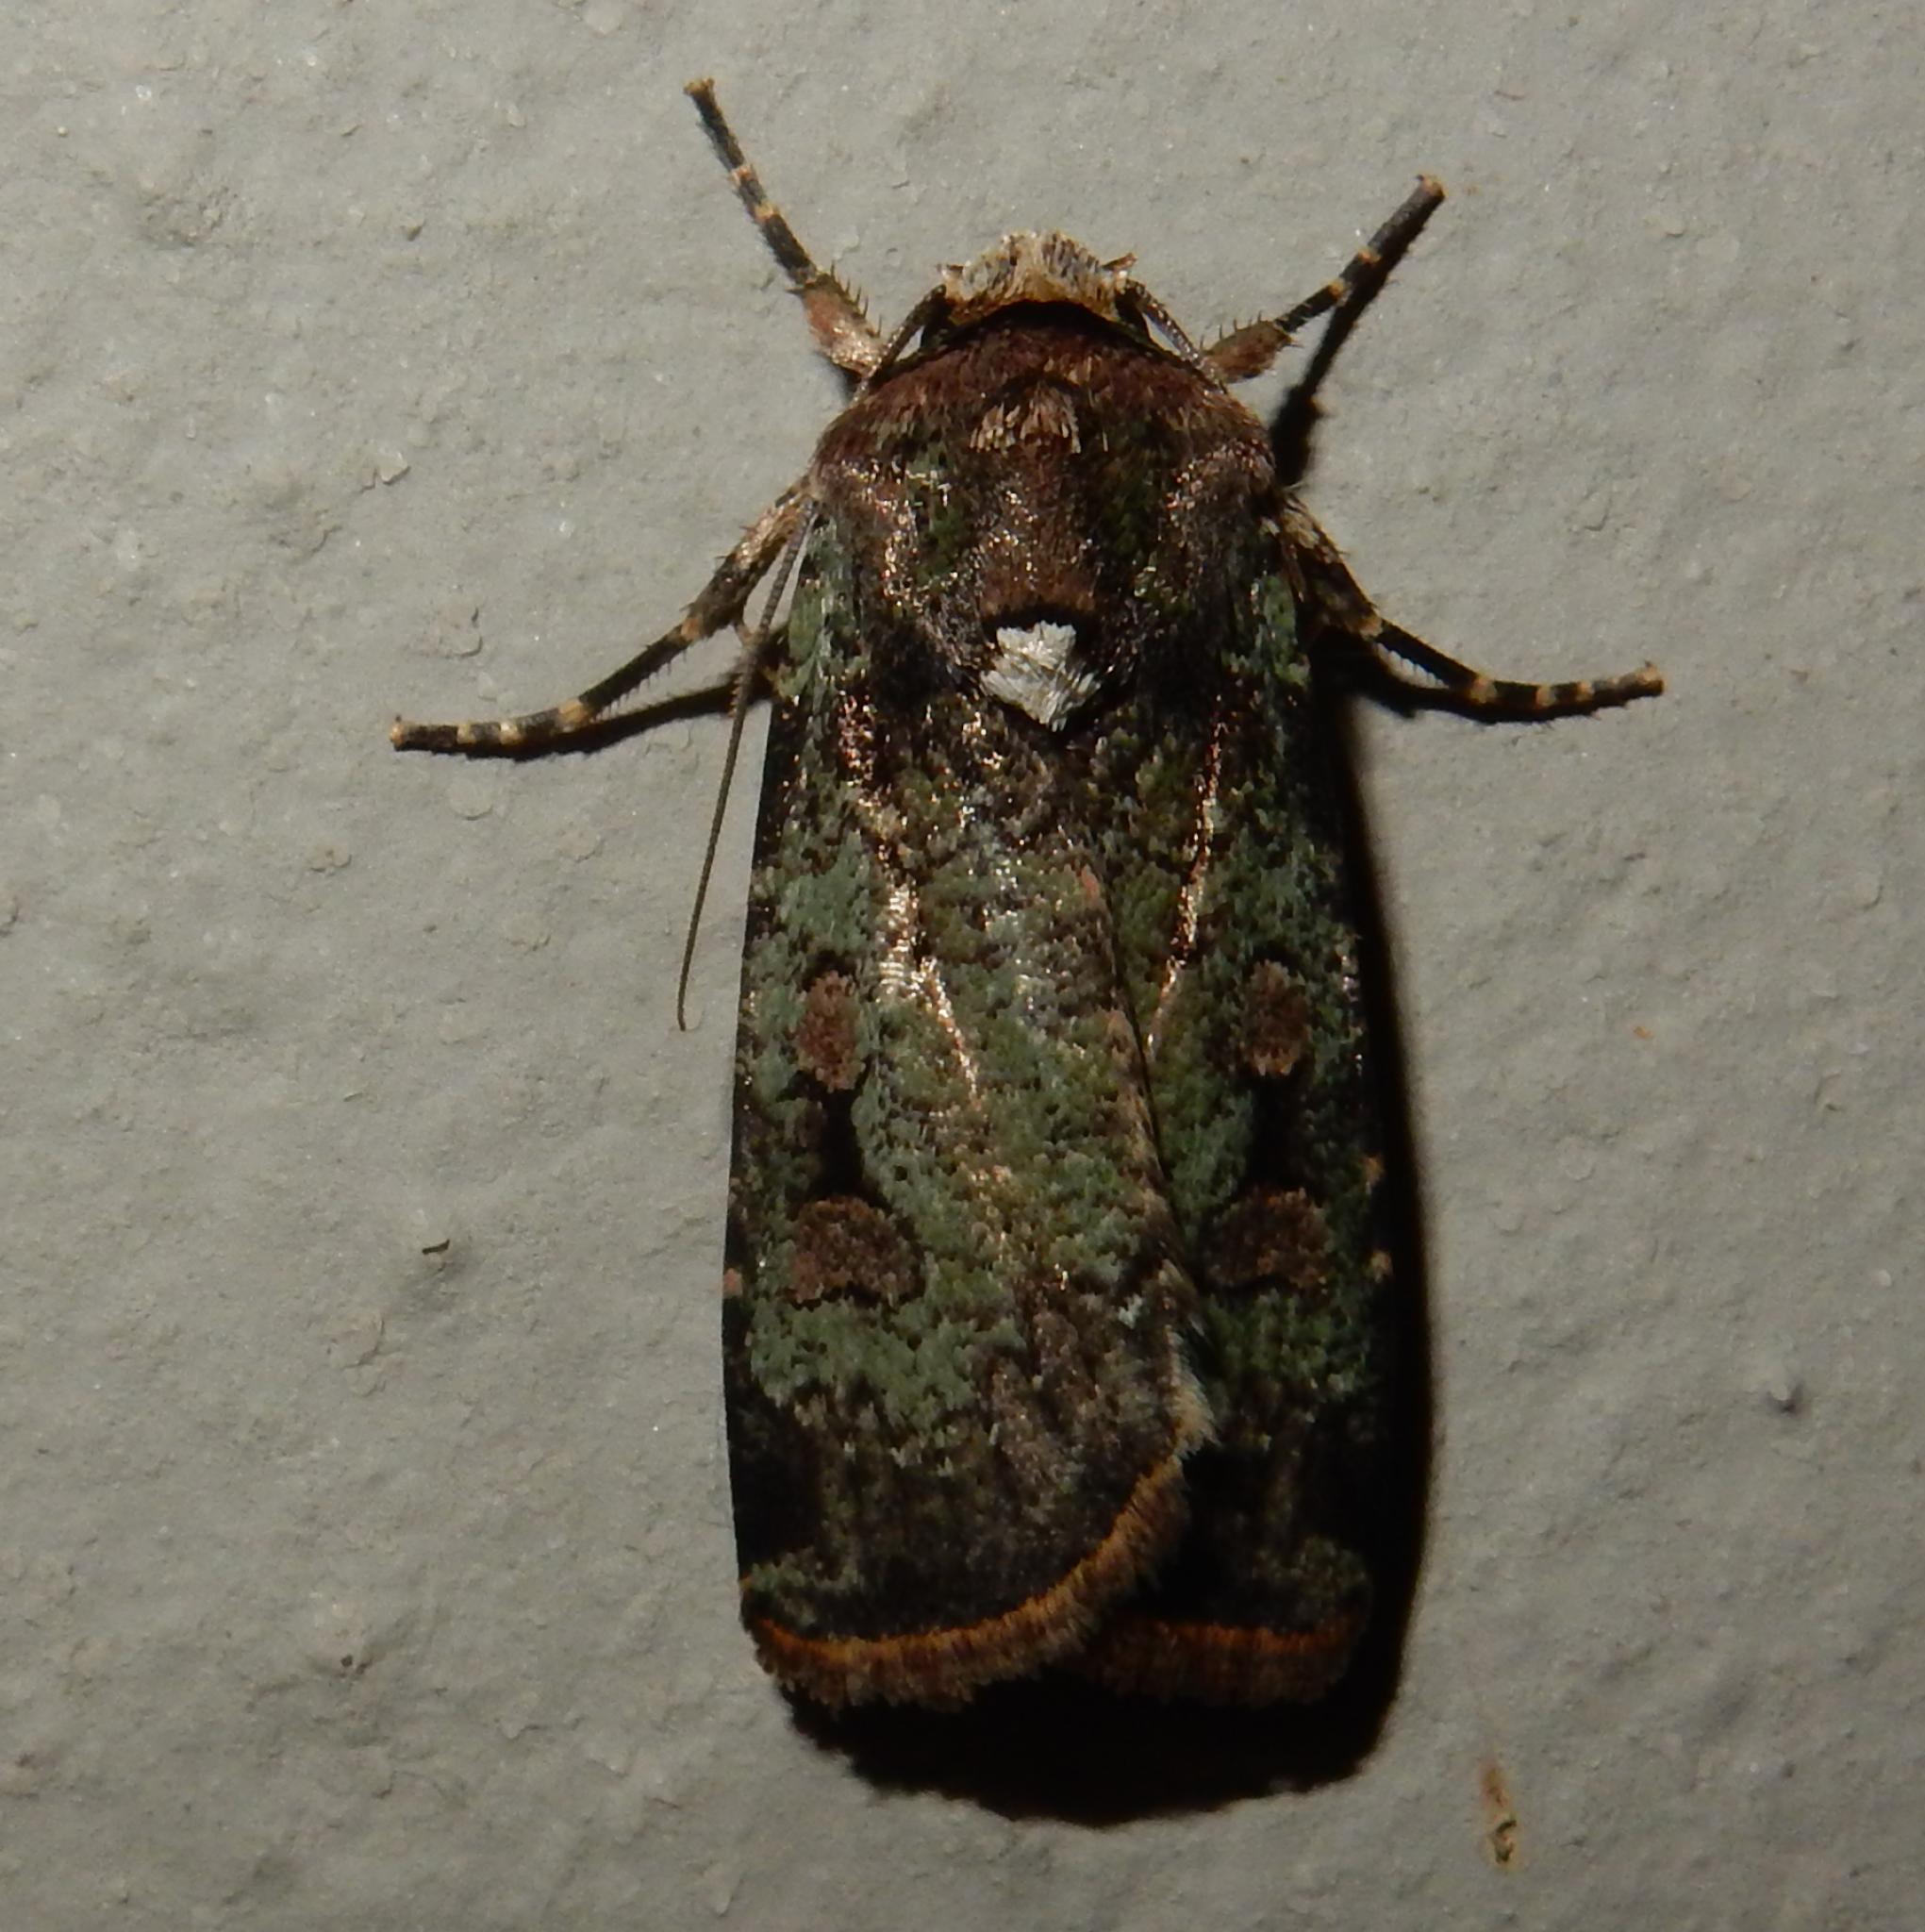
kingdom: Animalia
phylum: Arthropoda
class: Insecta
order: Lepidoptera
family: Noctuidae
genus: Mentaxya
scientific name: Mentaxya ignicollis
